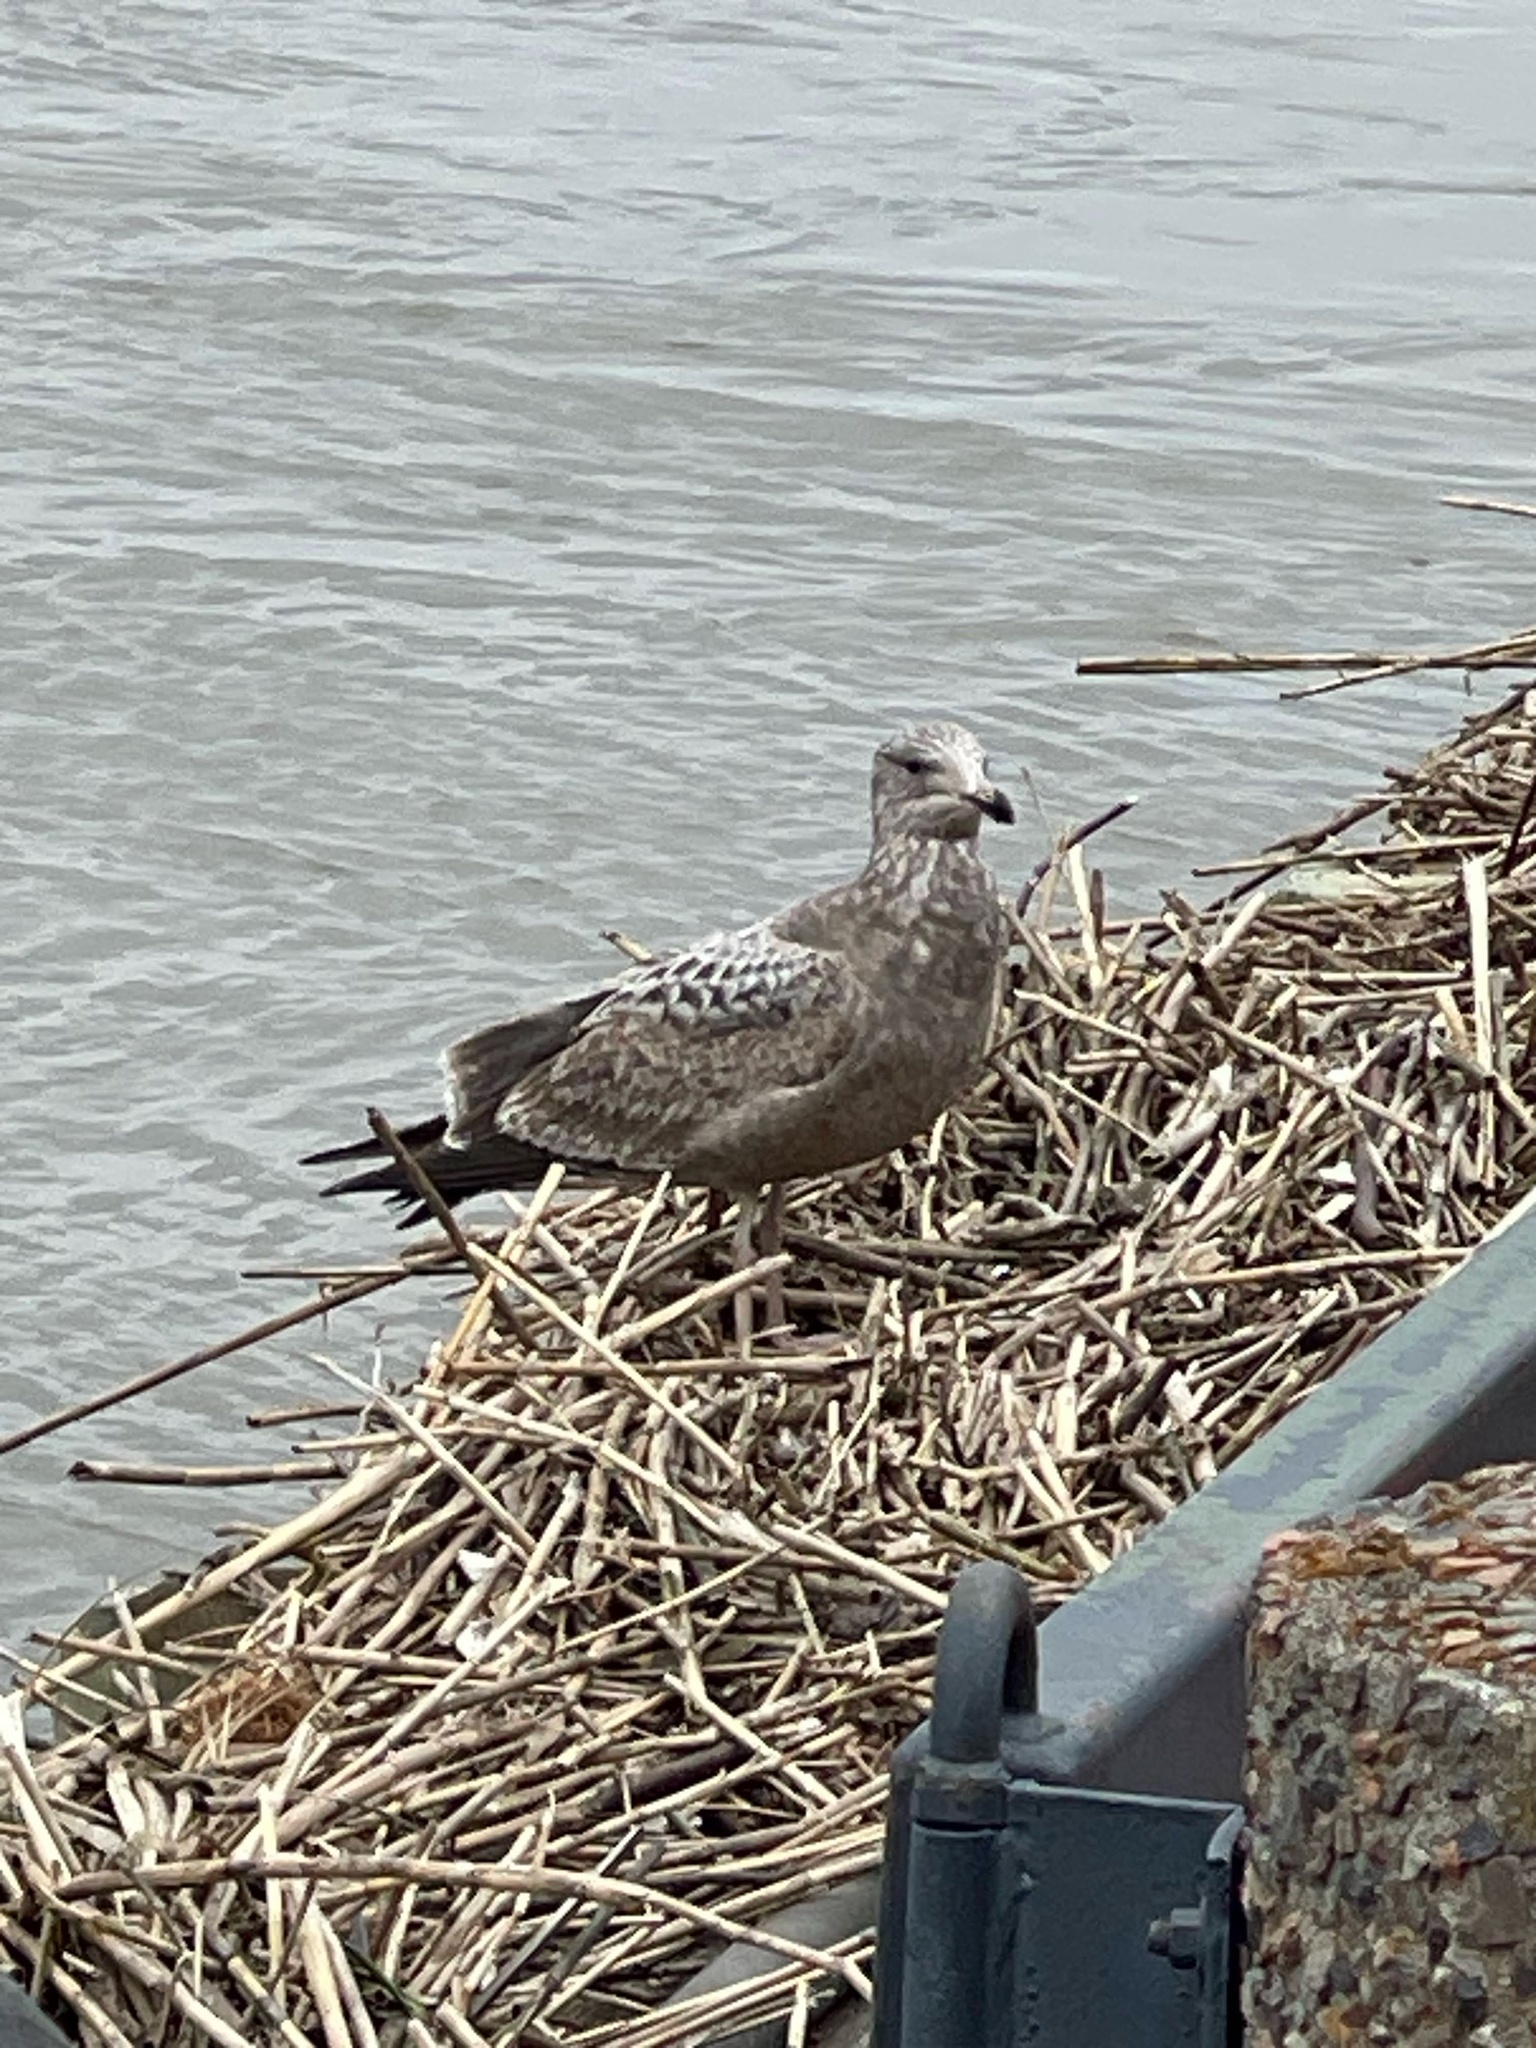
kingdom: Animalia
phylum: Chordata
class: Aves
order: Charadriiformes
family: Laridae
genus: Larus
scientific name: Larus argentatus
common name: Herring gull
